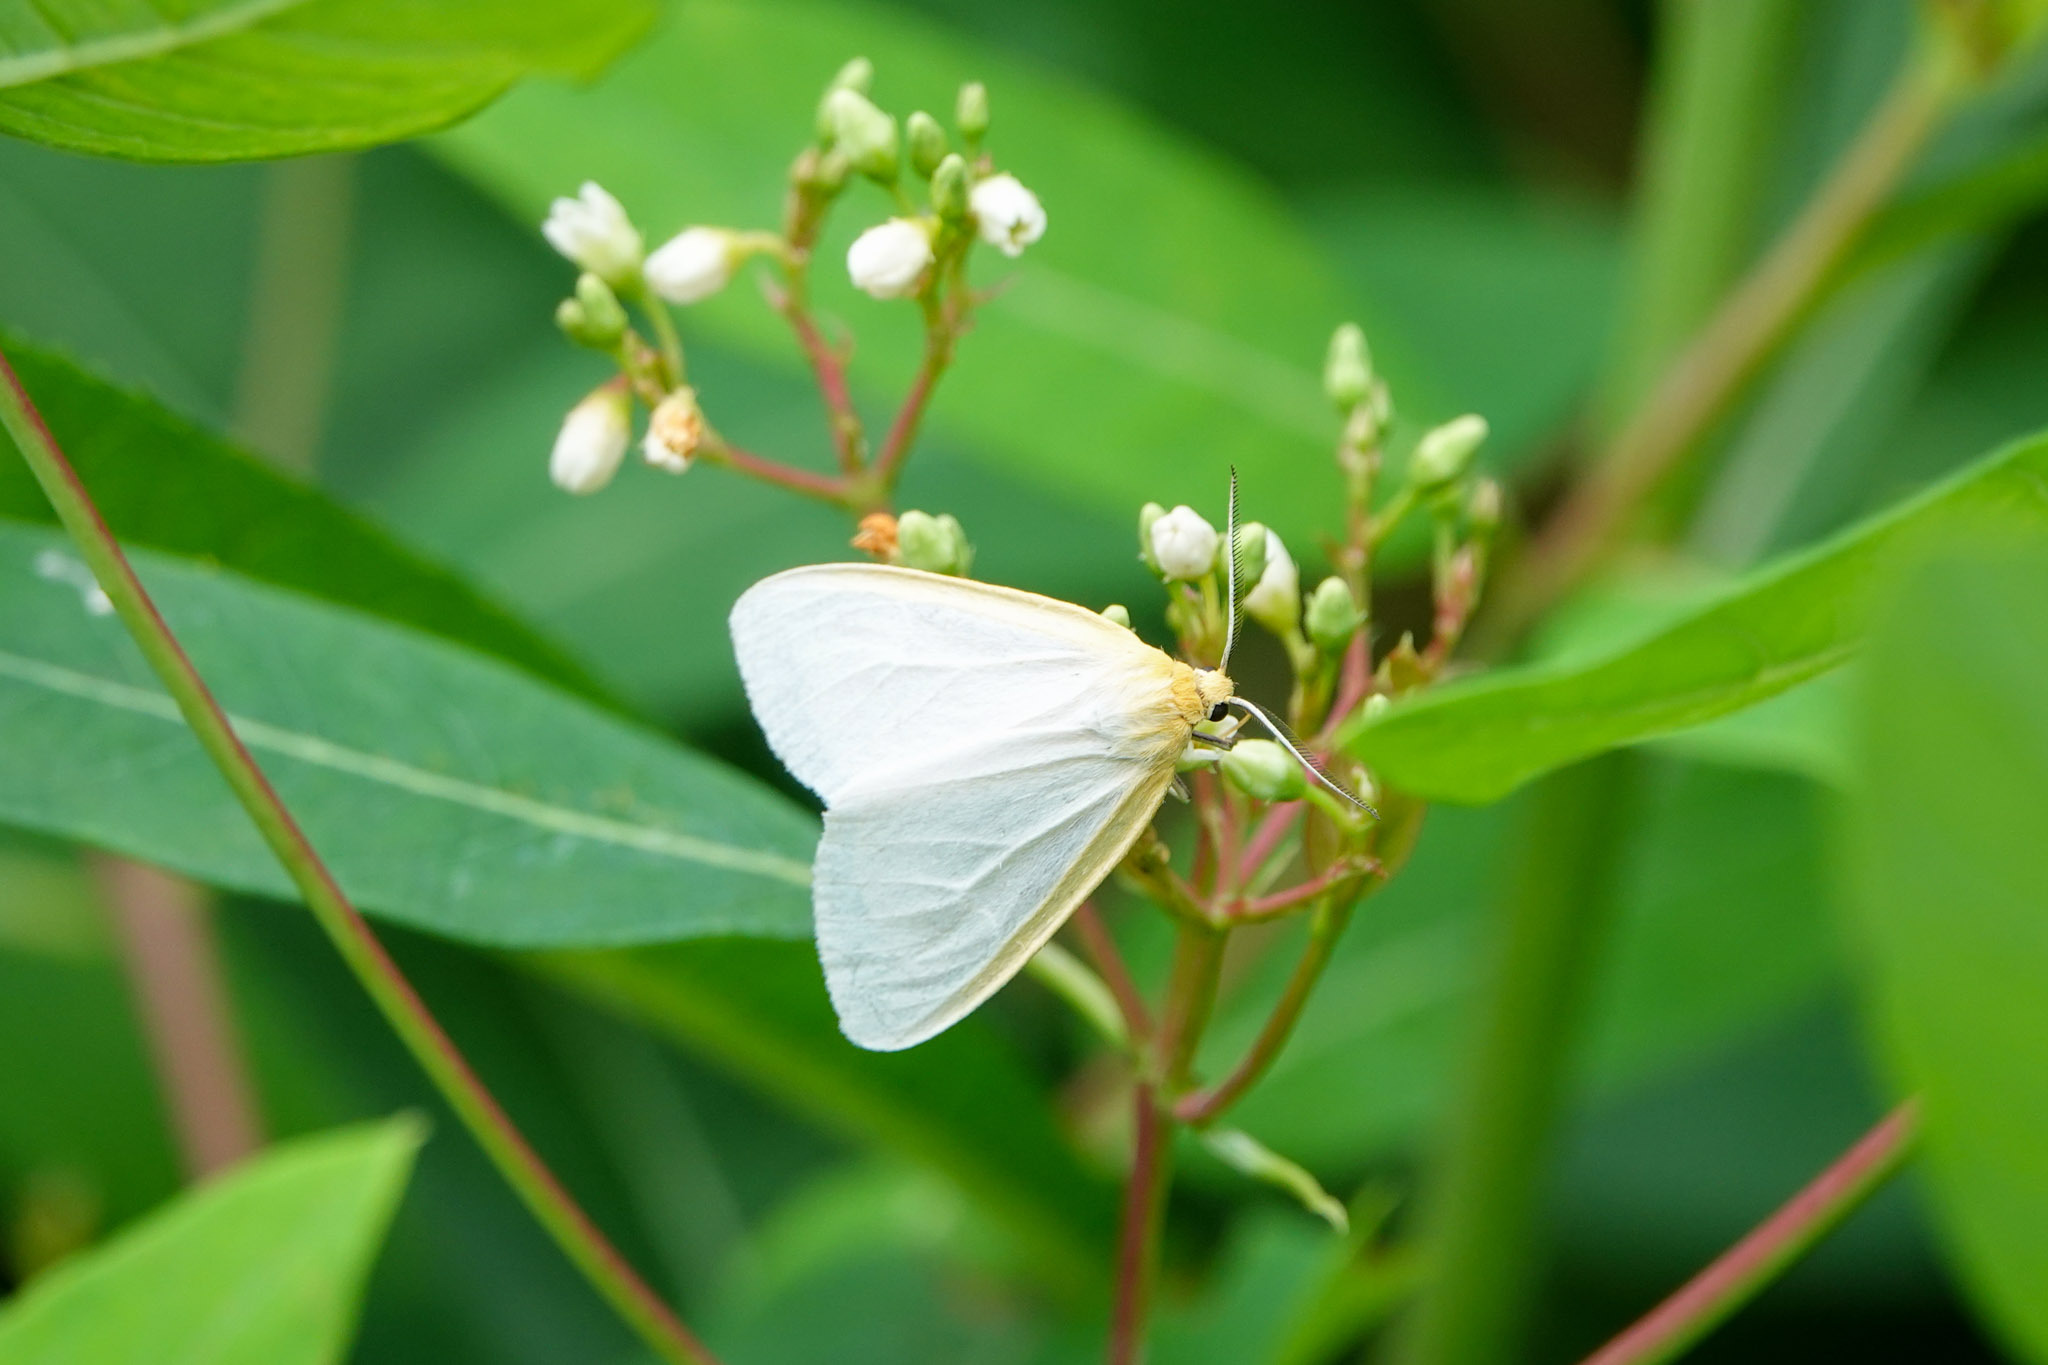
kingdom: Animalia
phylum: Arthropoda
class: Insecta
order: Lepidoptera
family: Erebidae
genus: Cycnia
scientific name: Cycnia tenera
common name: Delicate cycnia moth
